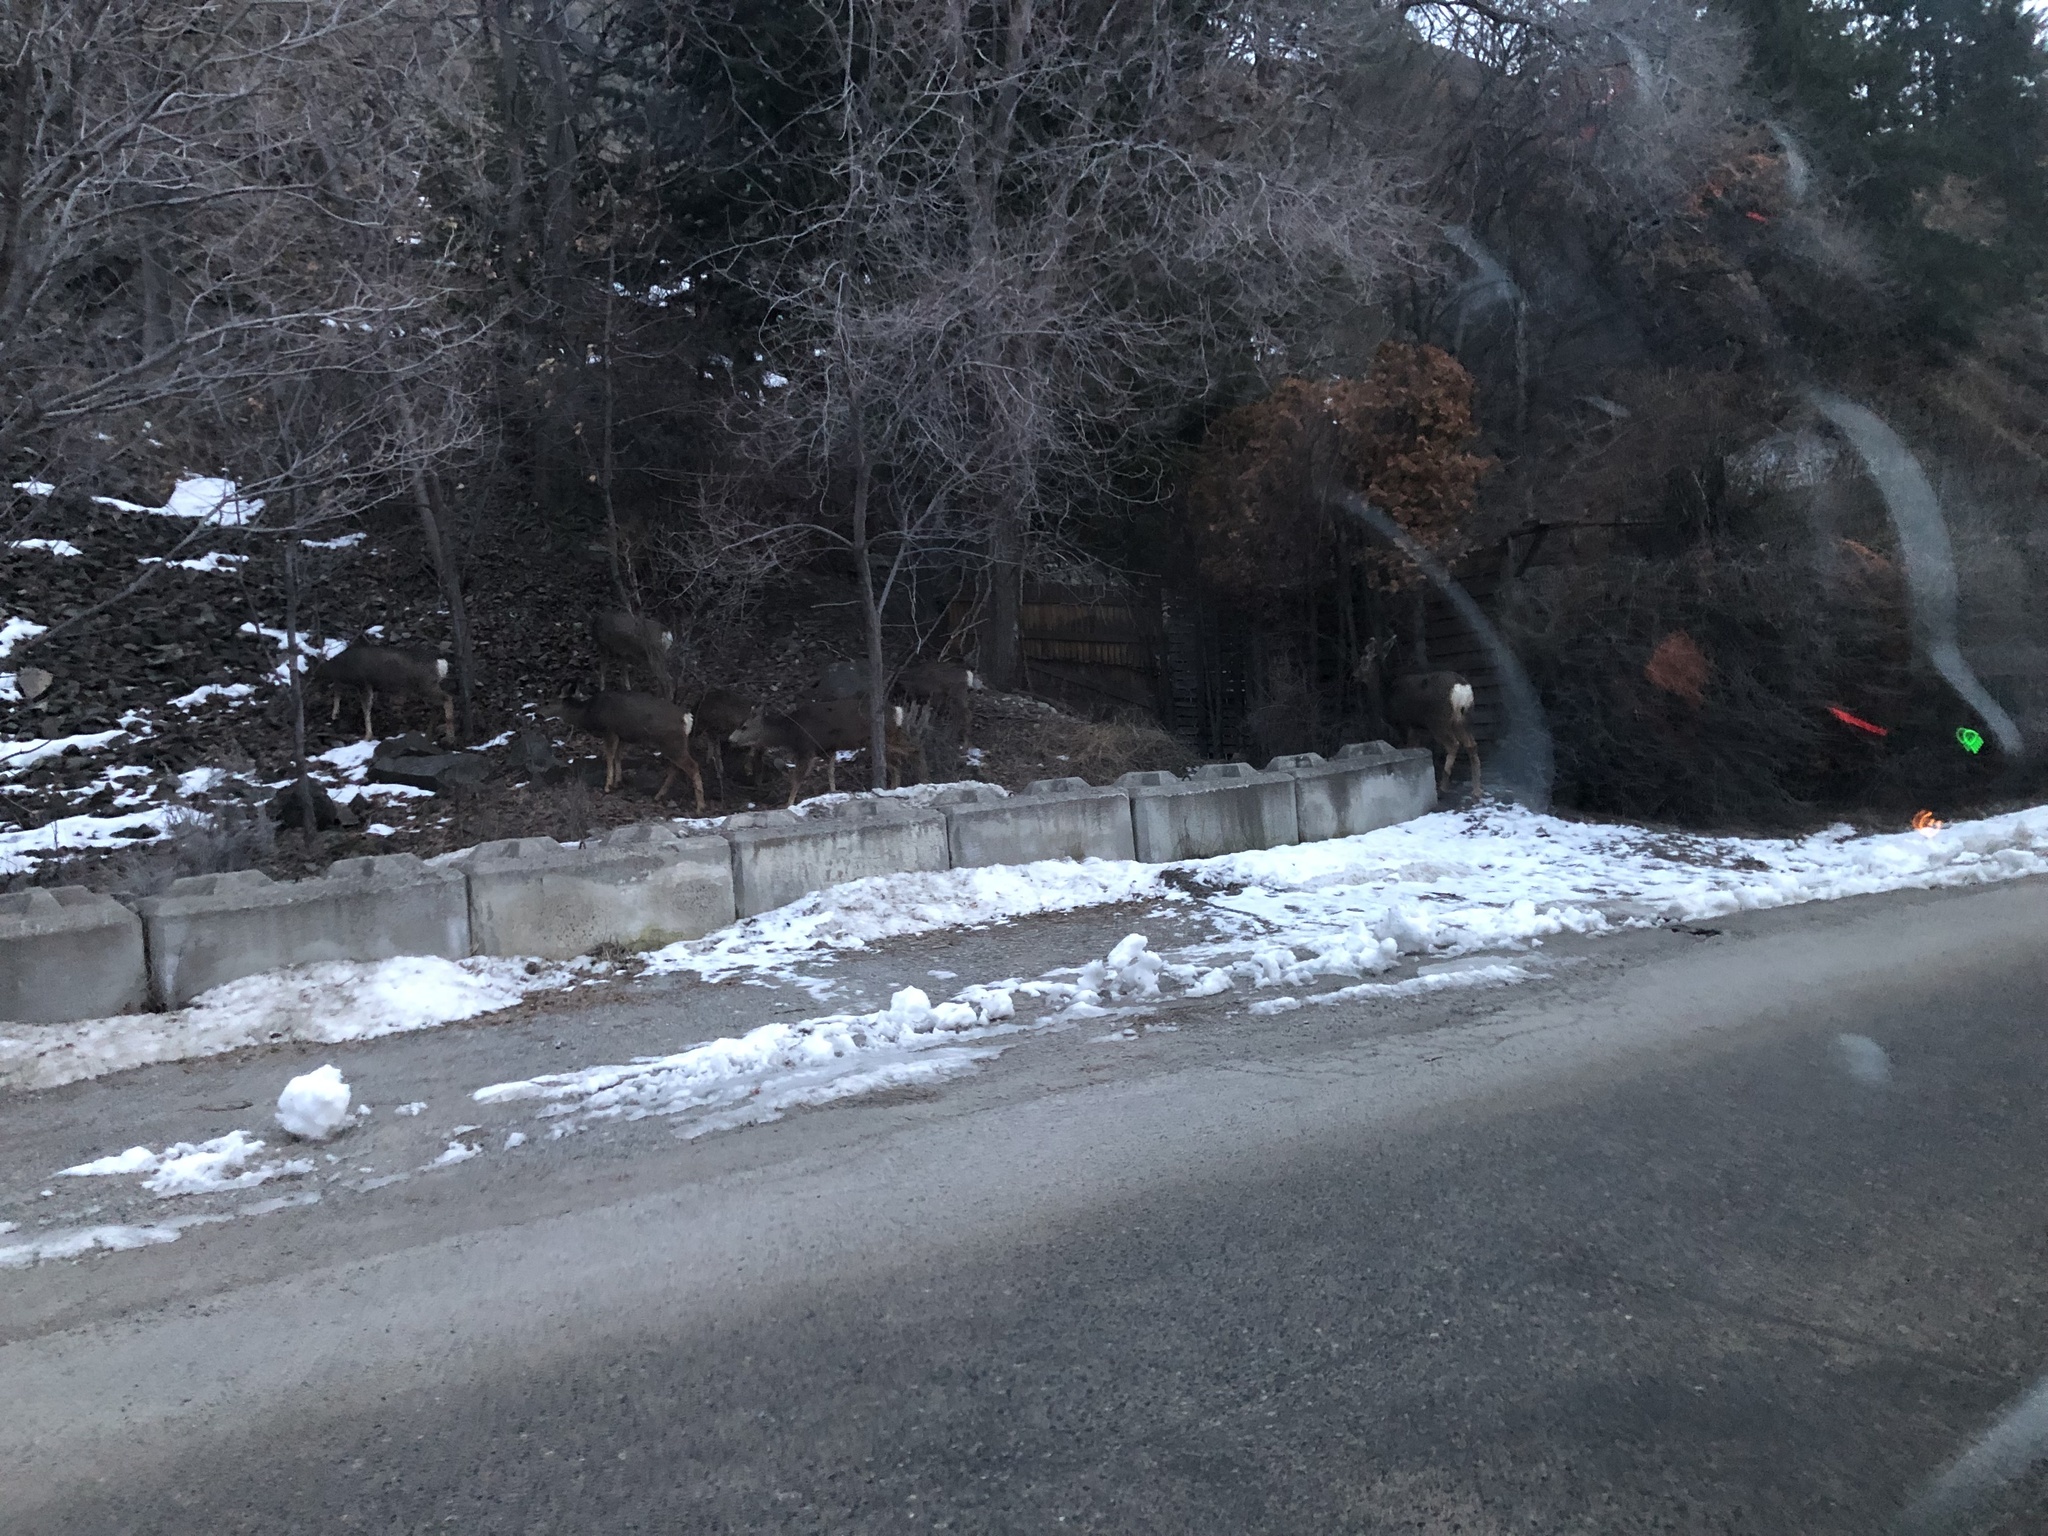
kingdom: Animalia
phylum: Chordata
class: Mammalia
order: Artiodactyla
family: Cervidae
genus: Odocoileus
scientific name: Odocoileus hemionus
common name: Mule deer
